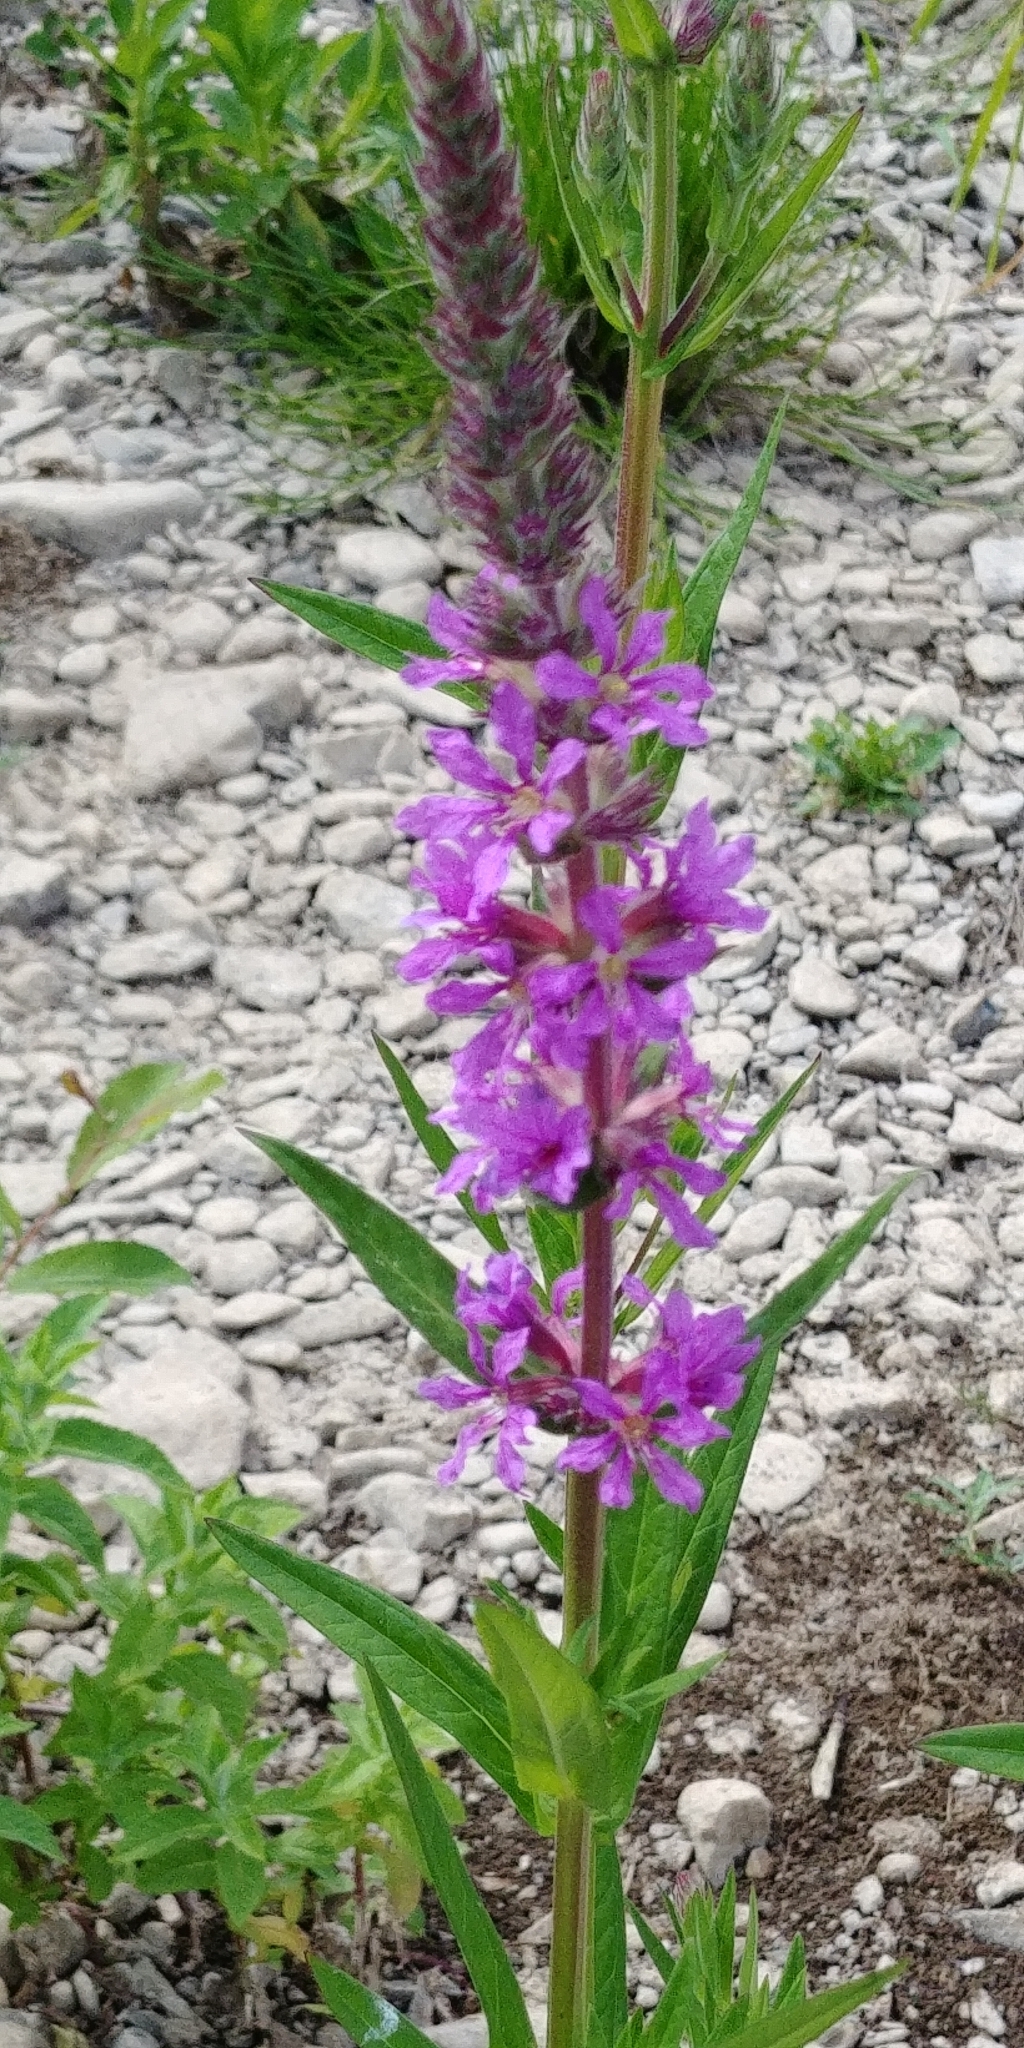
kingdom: Plantae
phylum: Tracheophyta
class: Magnoliopsida
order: Myrtales
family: Lythraceae
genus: Lythrum
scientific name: Lythrum salicaria
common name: Purple loosestrife
